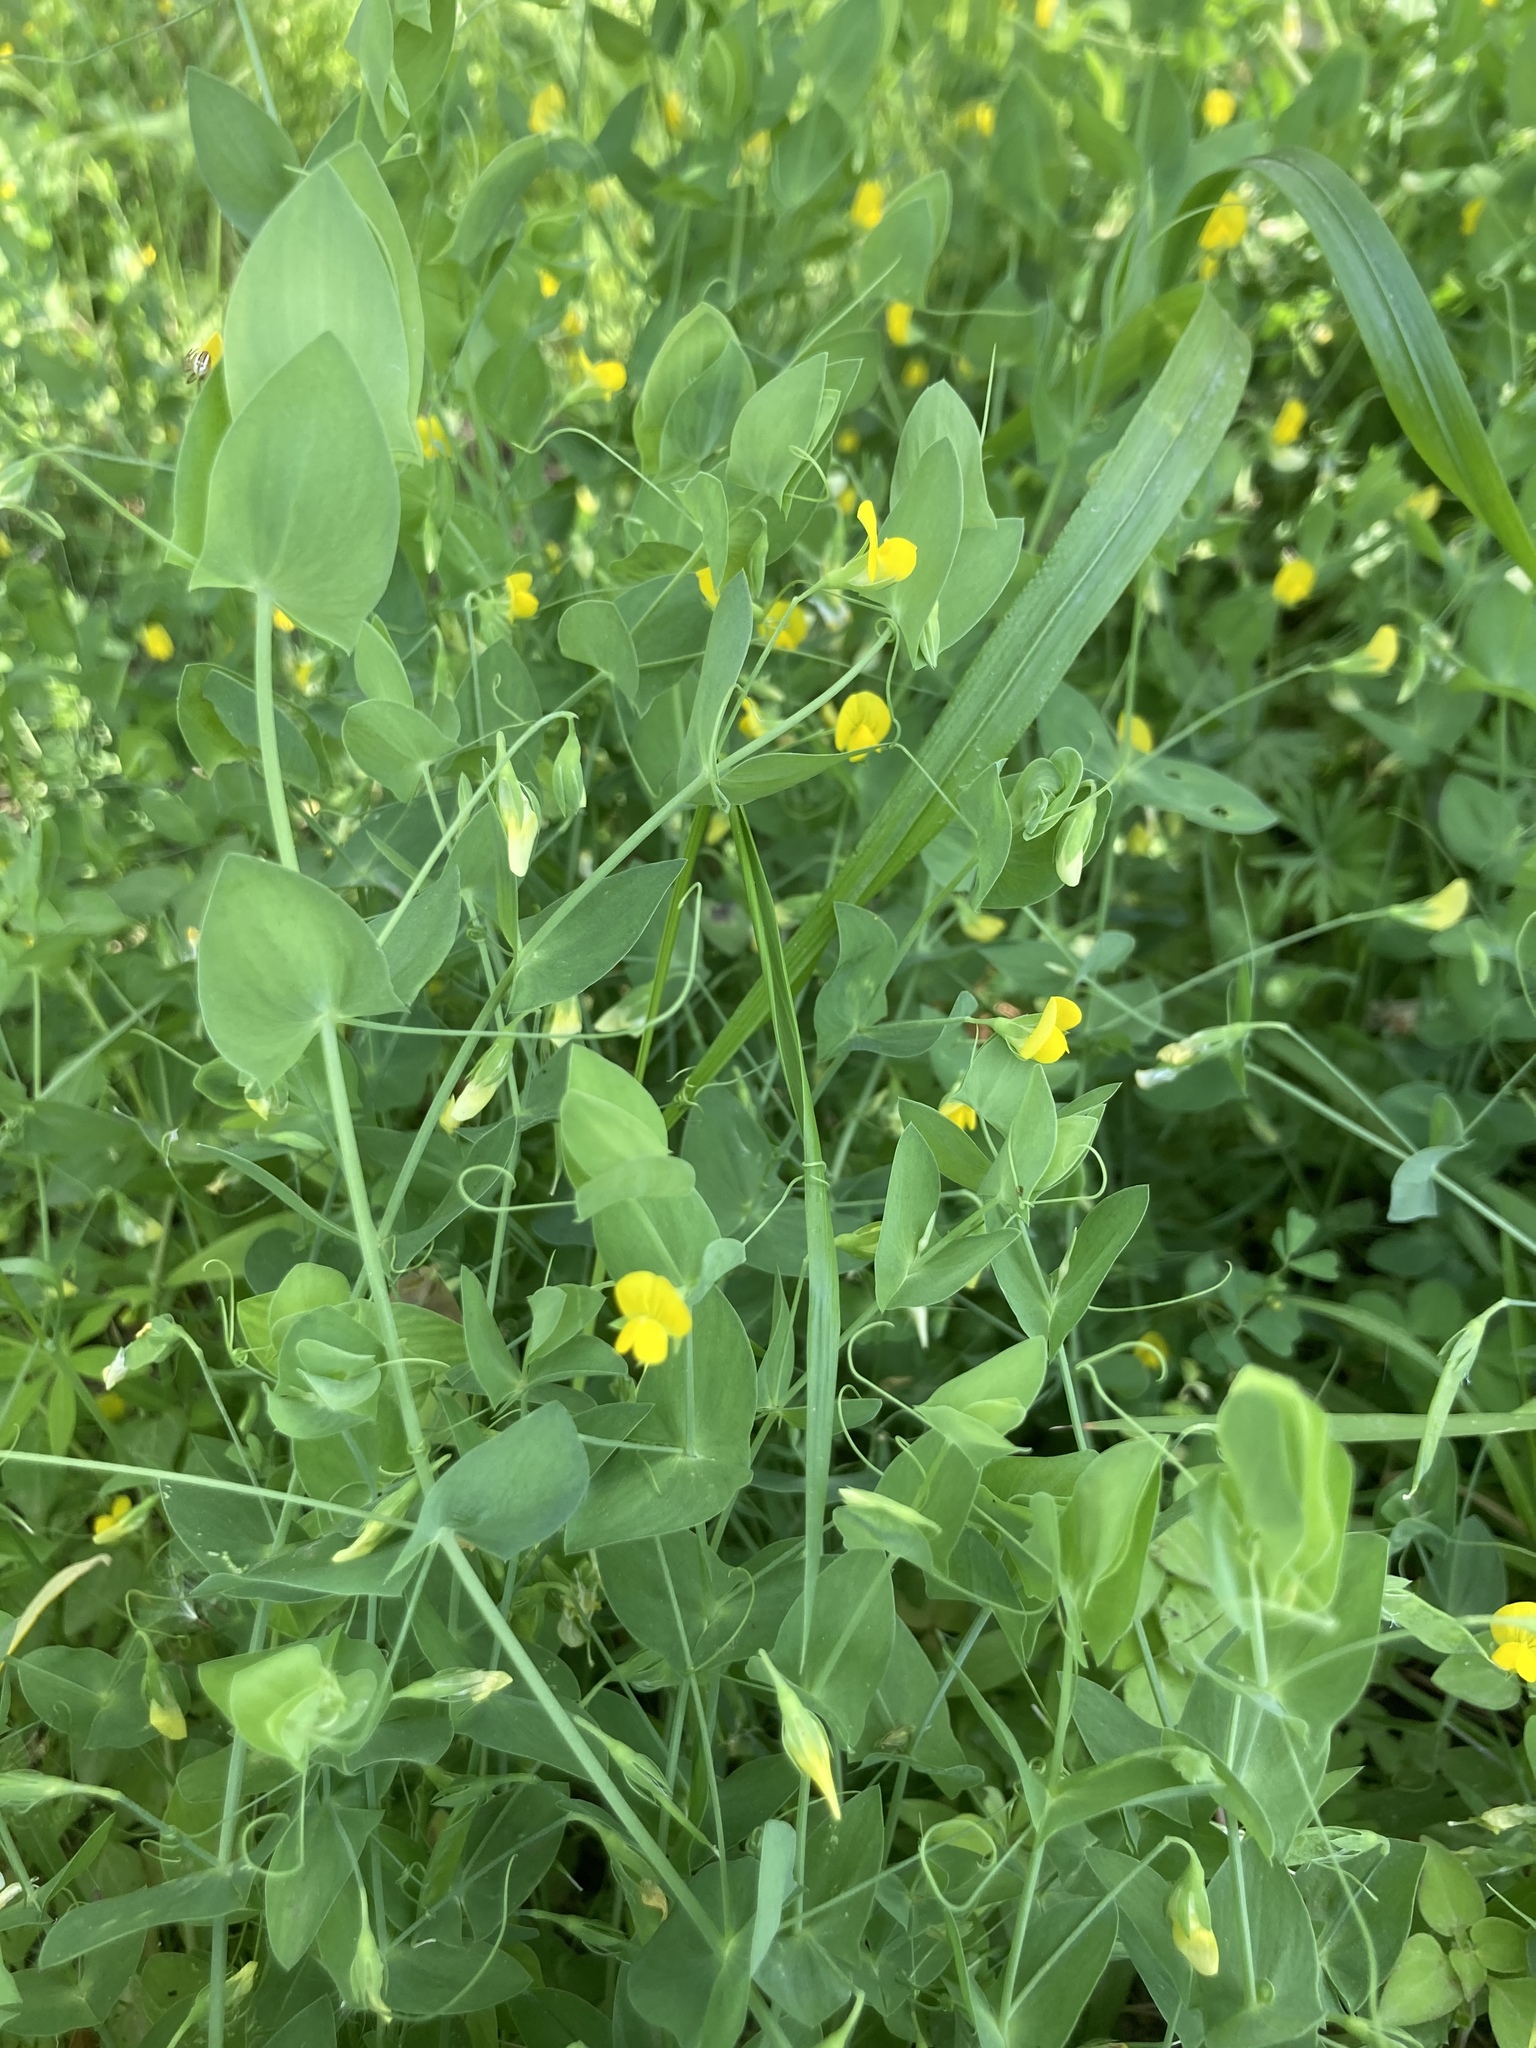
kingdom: Plantae
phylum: Tracheophyta
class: Magnoliopsida
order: Fabales
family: Fabaceae
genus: Lathyrus
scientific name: Lathyrus aphaca
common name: Yellow vetchling
